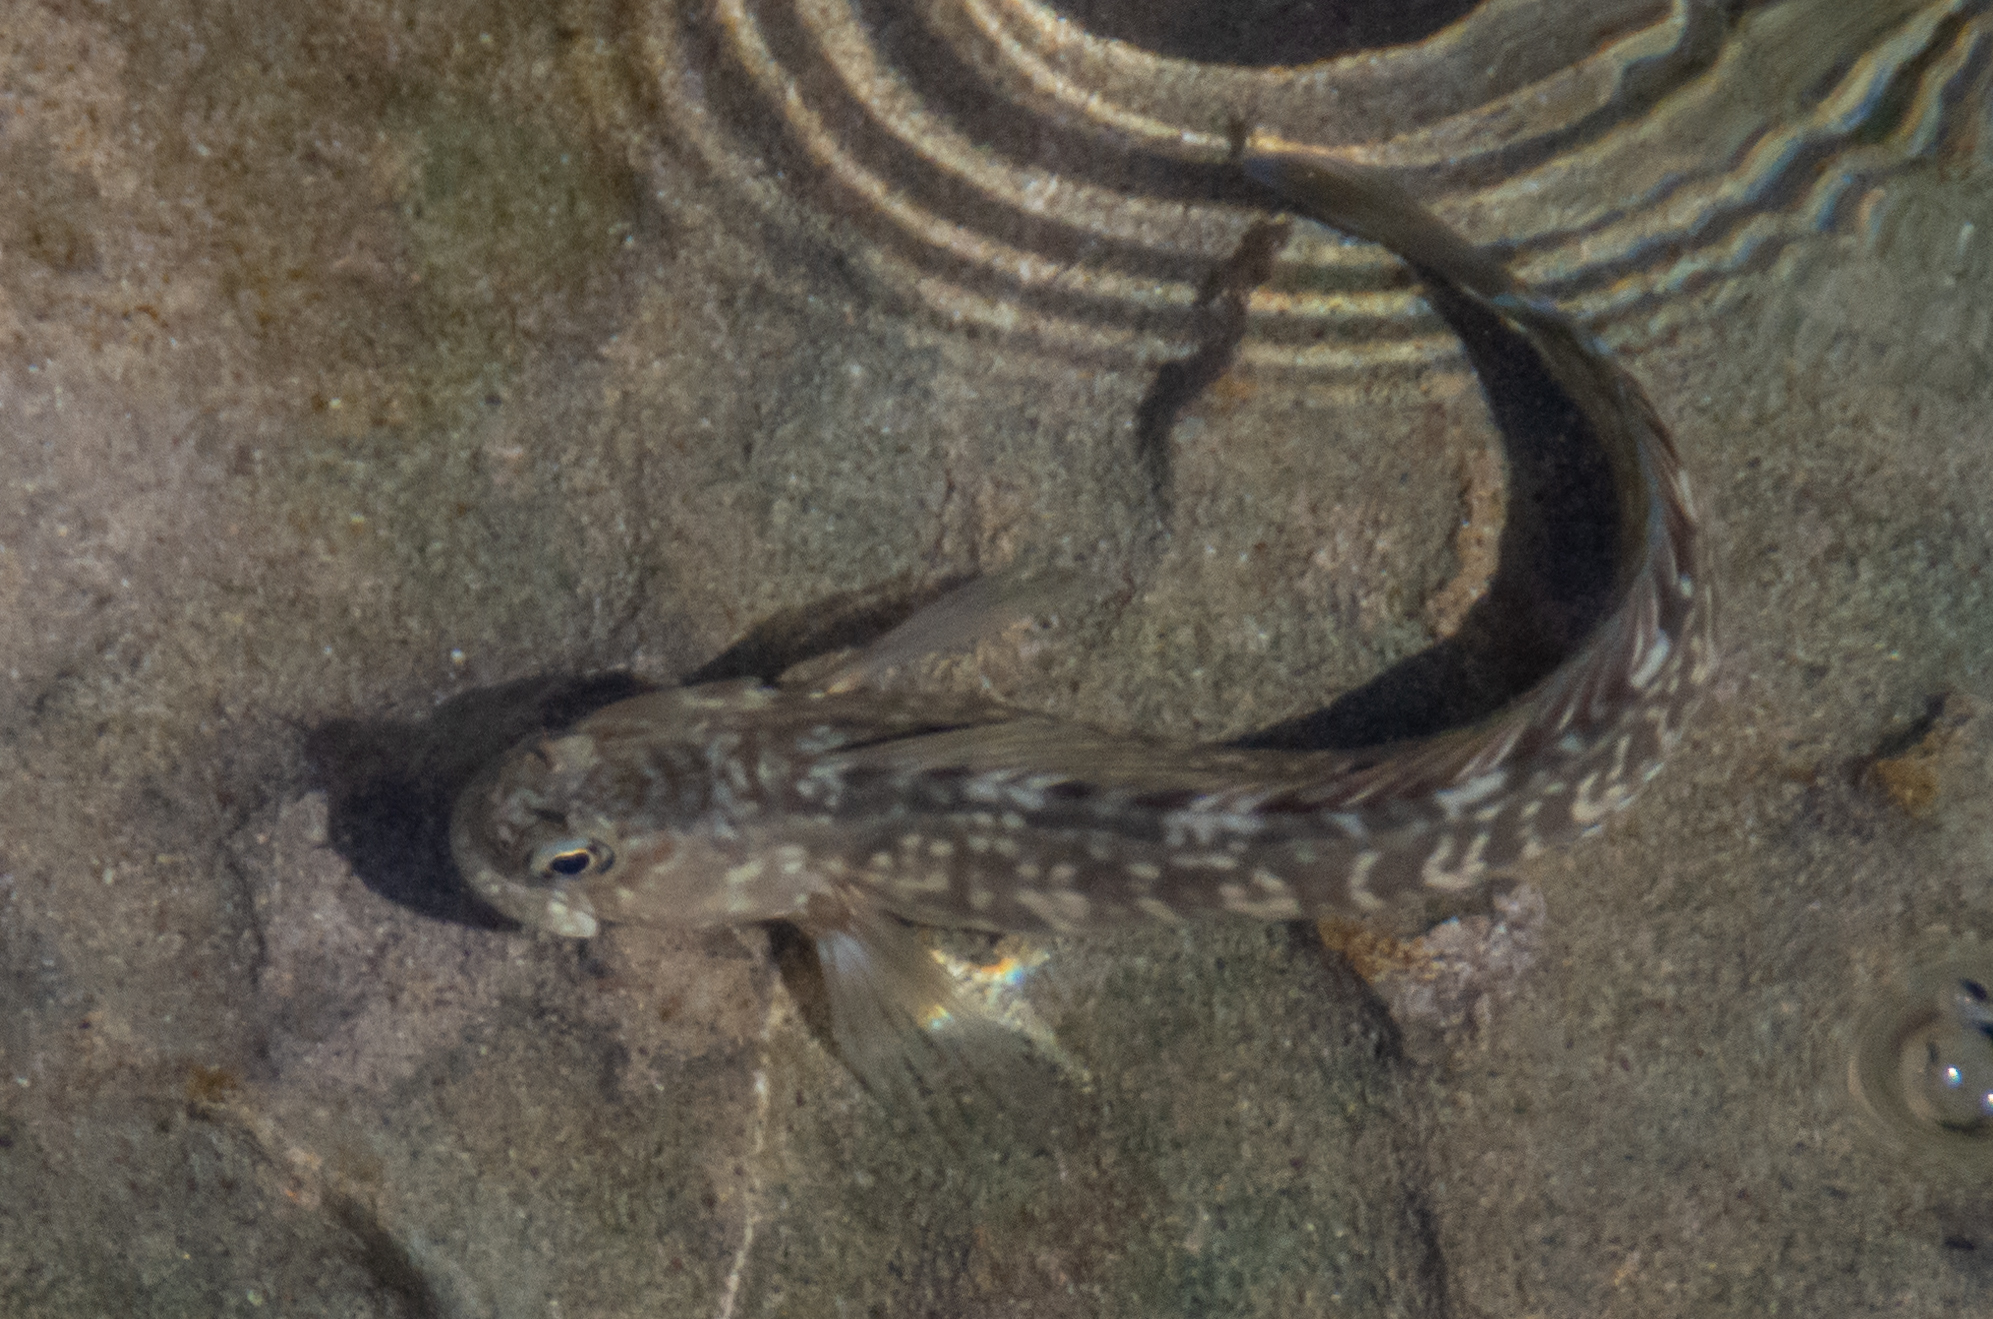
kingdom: Animalia
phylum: Chordata
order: Perciformes
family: Blenniidae
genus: Istiblennius
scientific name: Istiblennius zebra
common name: Zebra blenny
